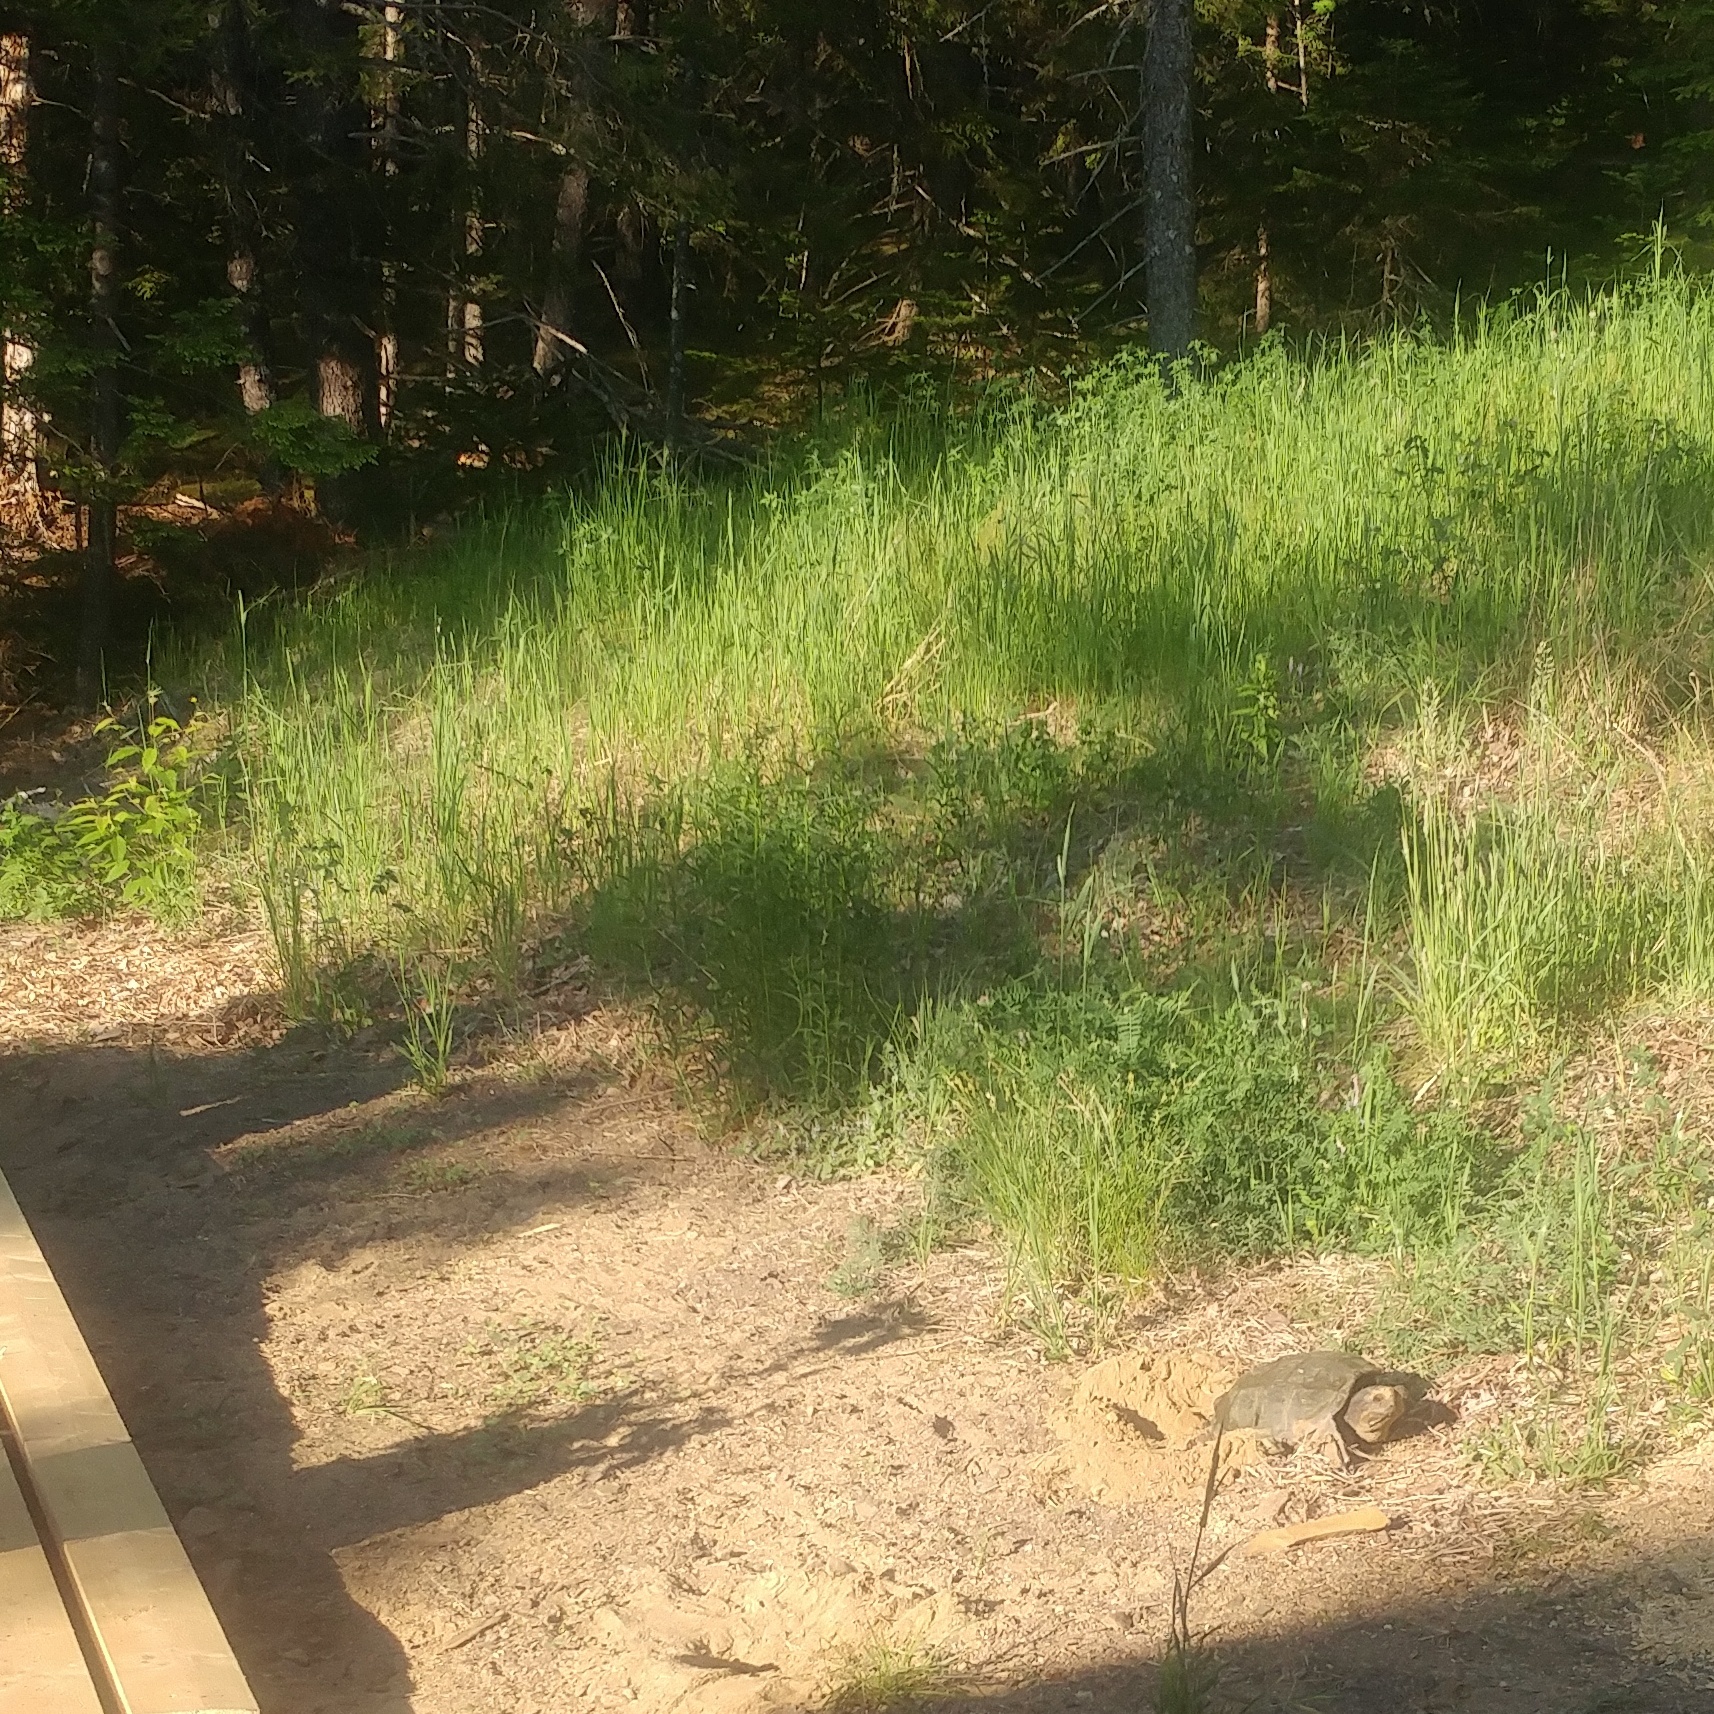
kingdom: Animalia
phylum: Chordata
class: Testudines
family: Chelydridae
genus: Chelydra
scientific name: Chelydra serpentina
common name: Common snapping turtle
